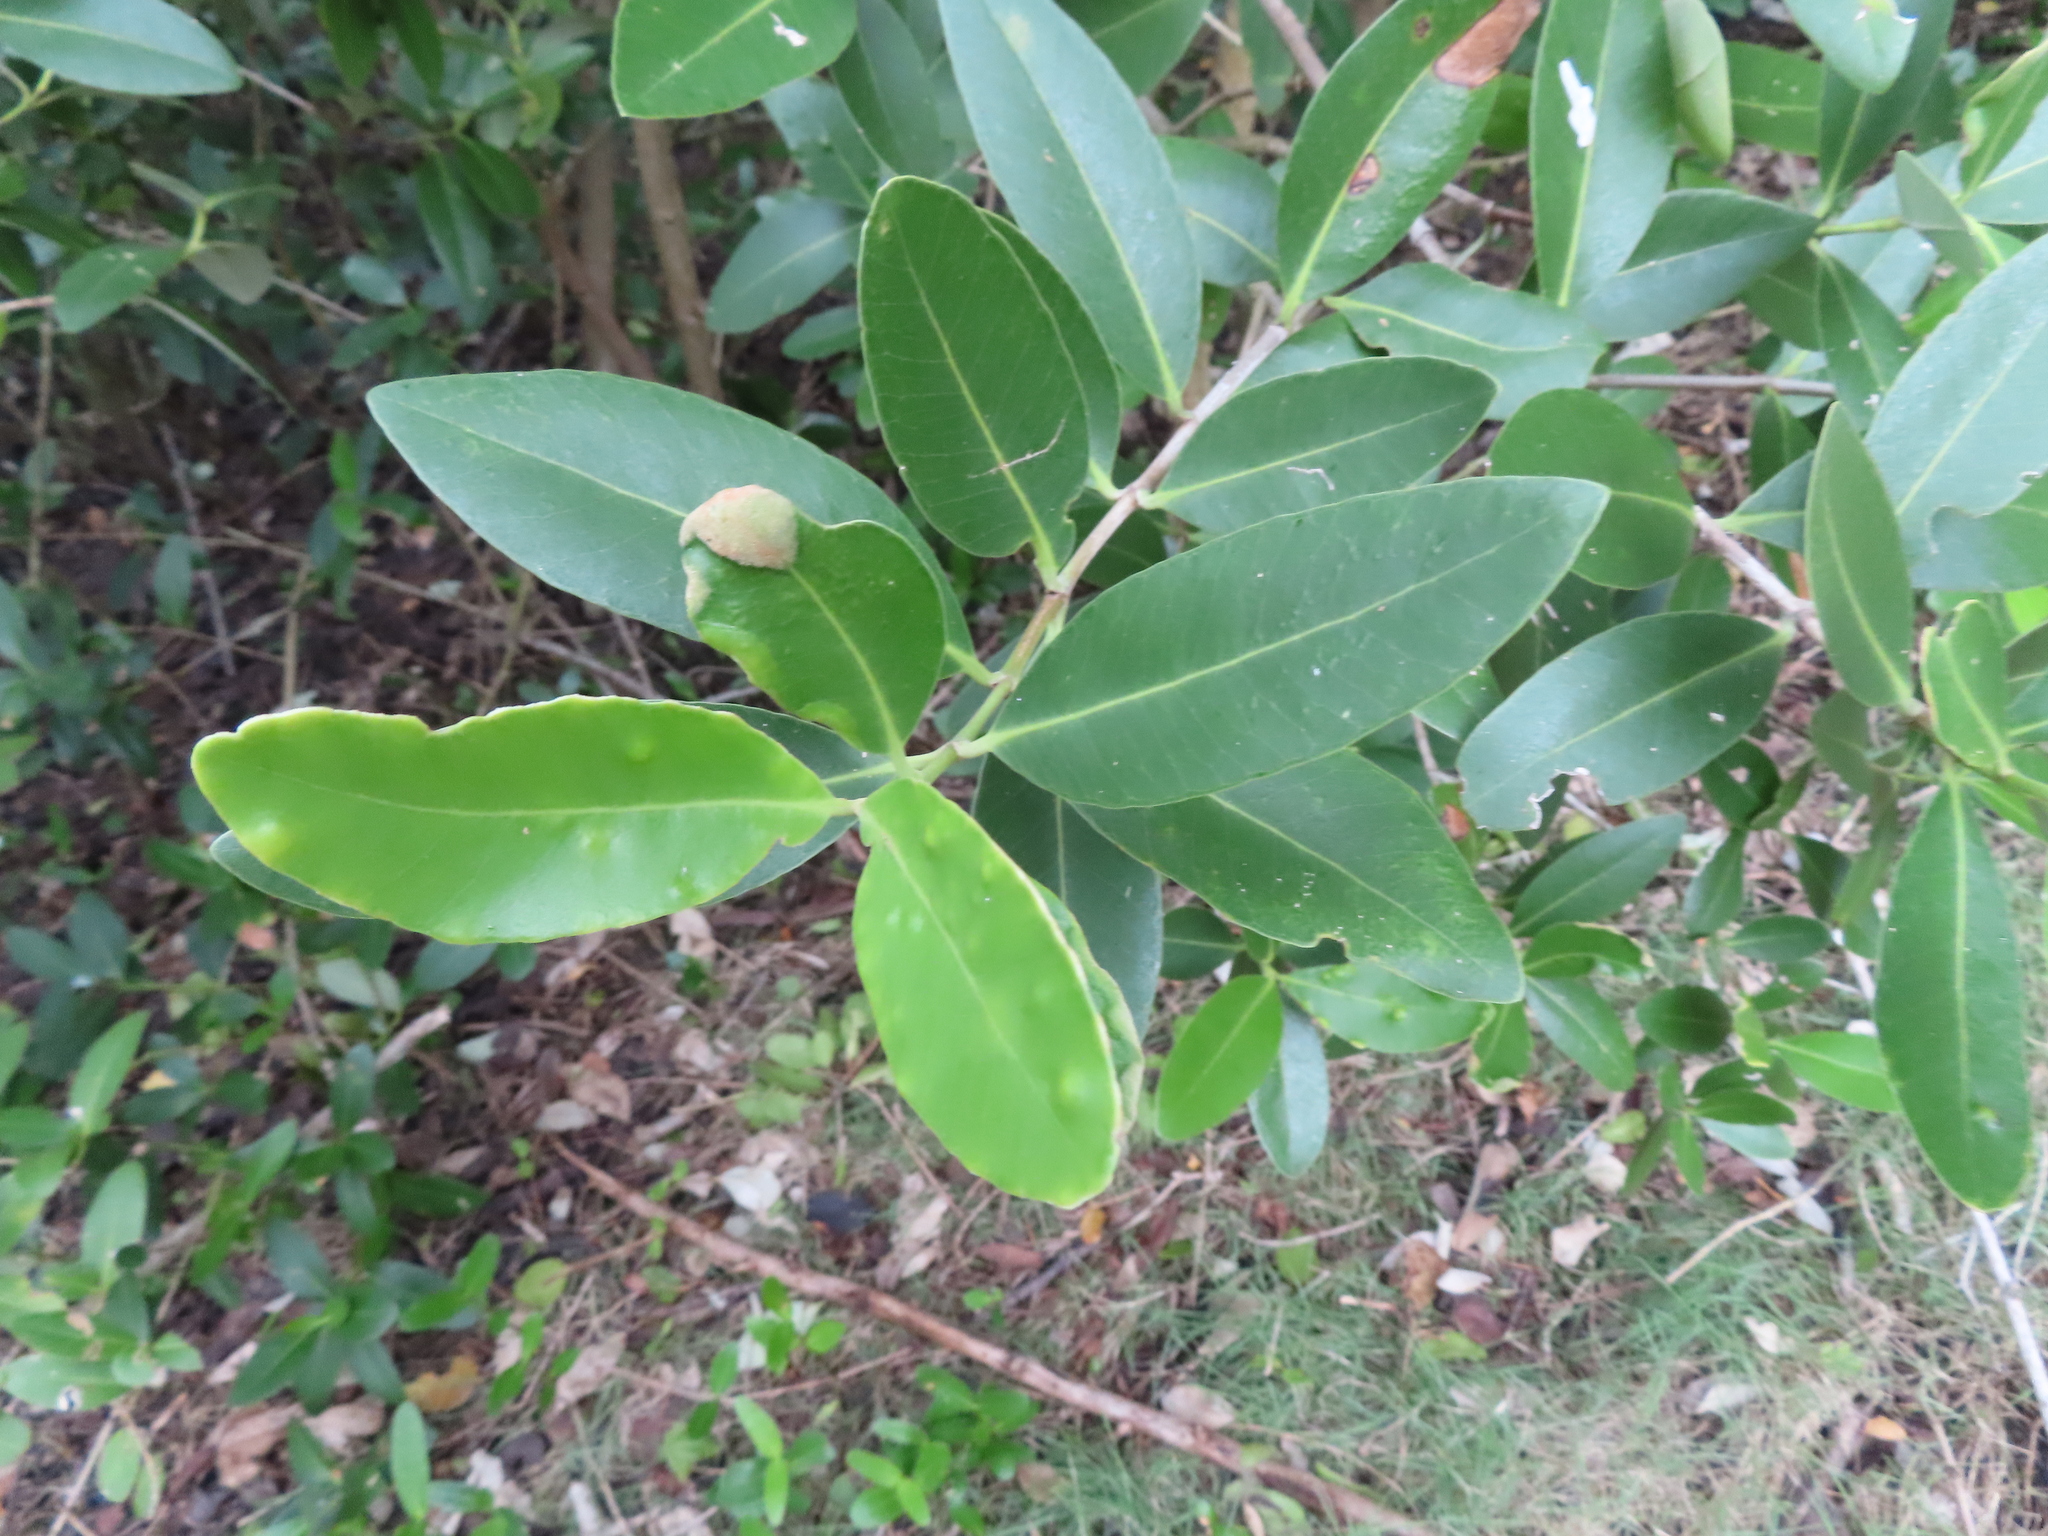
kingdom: Plantae
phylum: Tracheophyta
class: Magnoliopsida
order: Lamiales
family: Acanthaceae
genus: Avicennia
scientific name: Avicennia germinans
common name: Black mangrove
